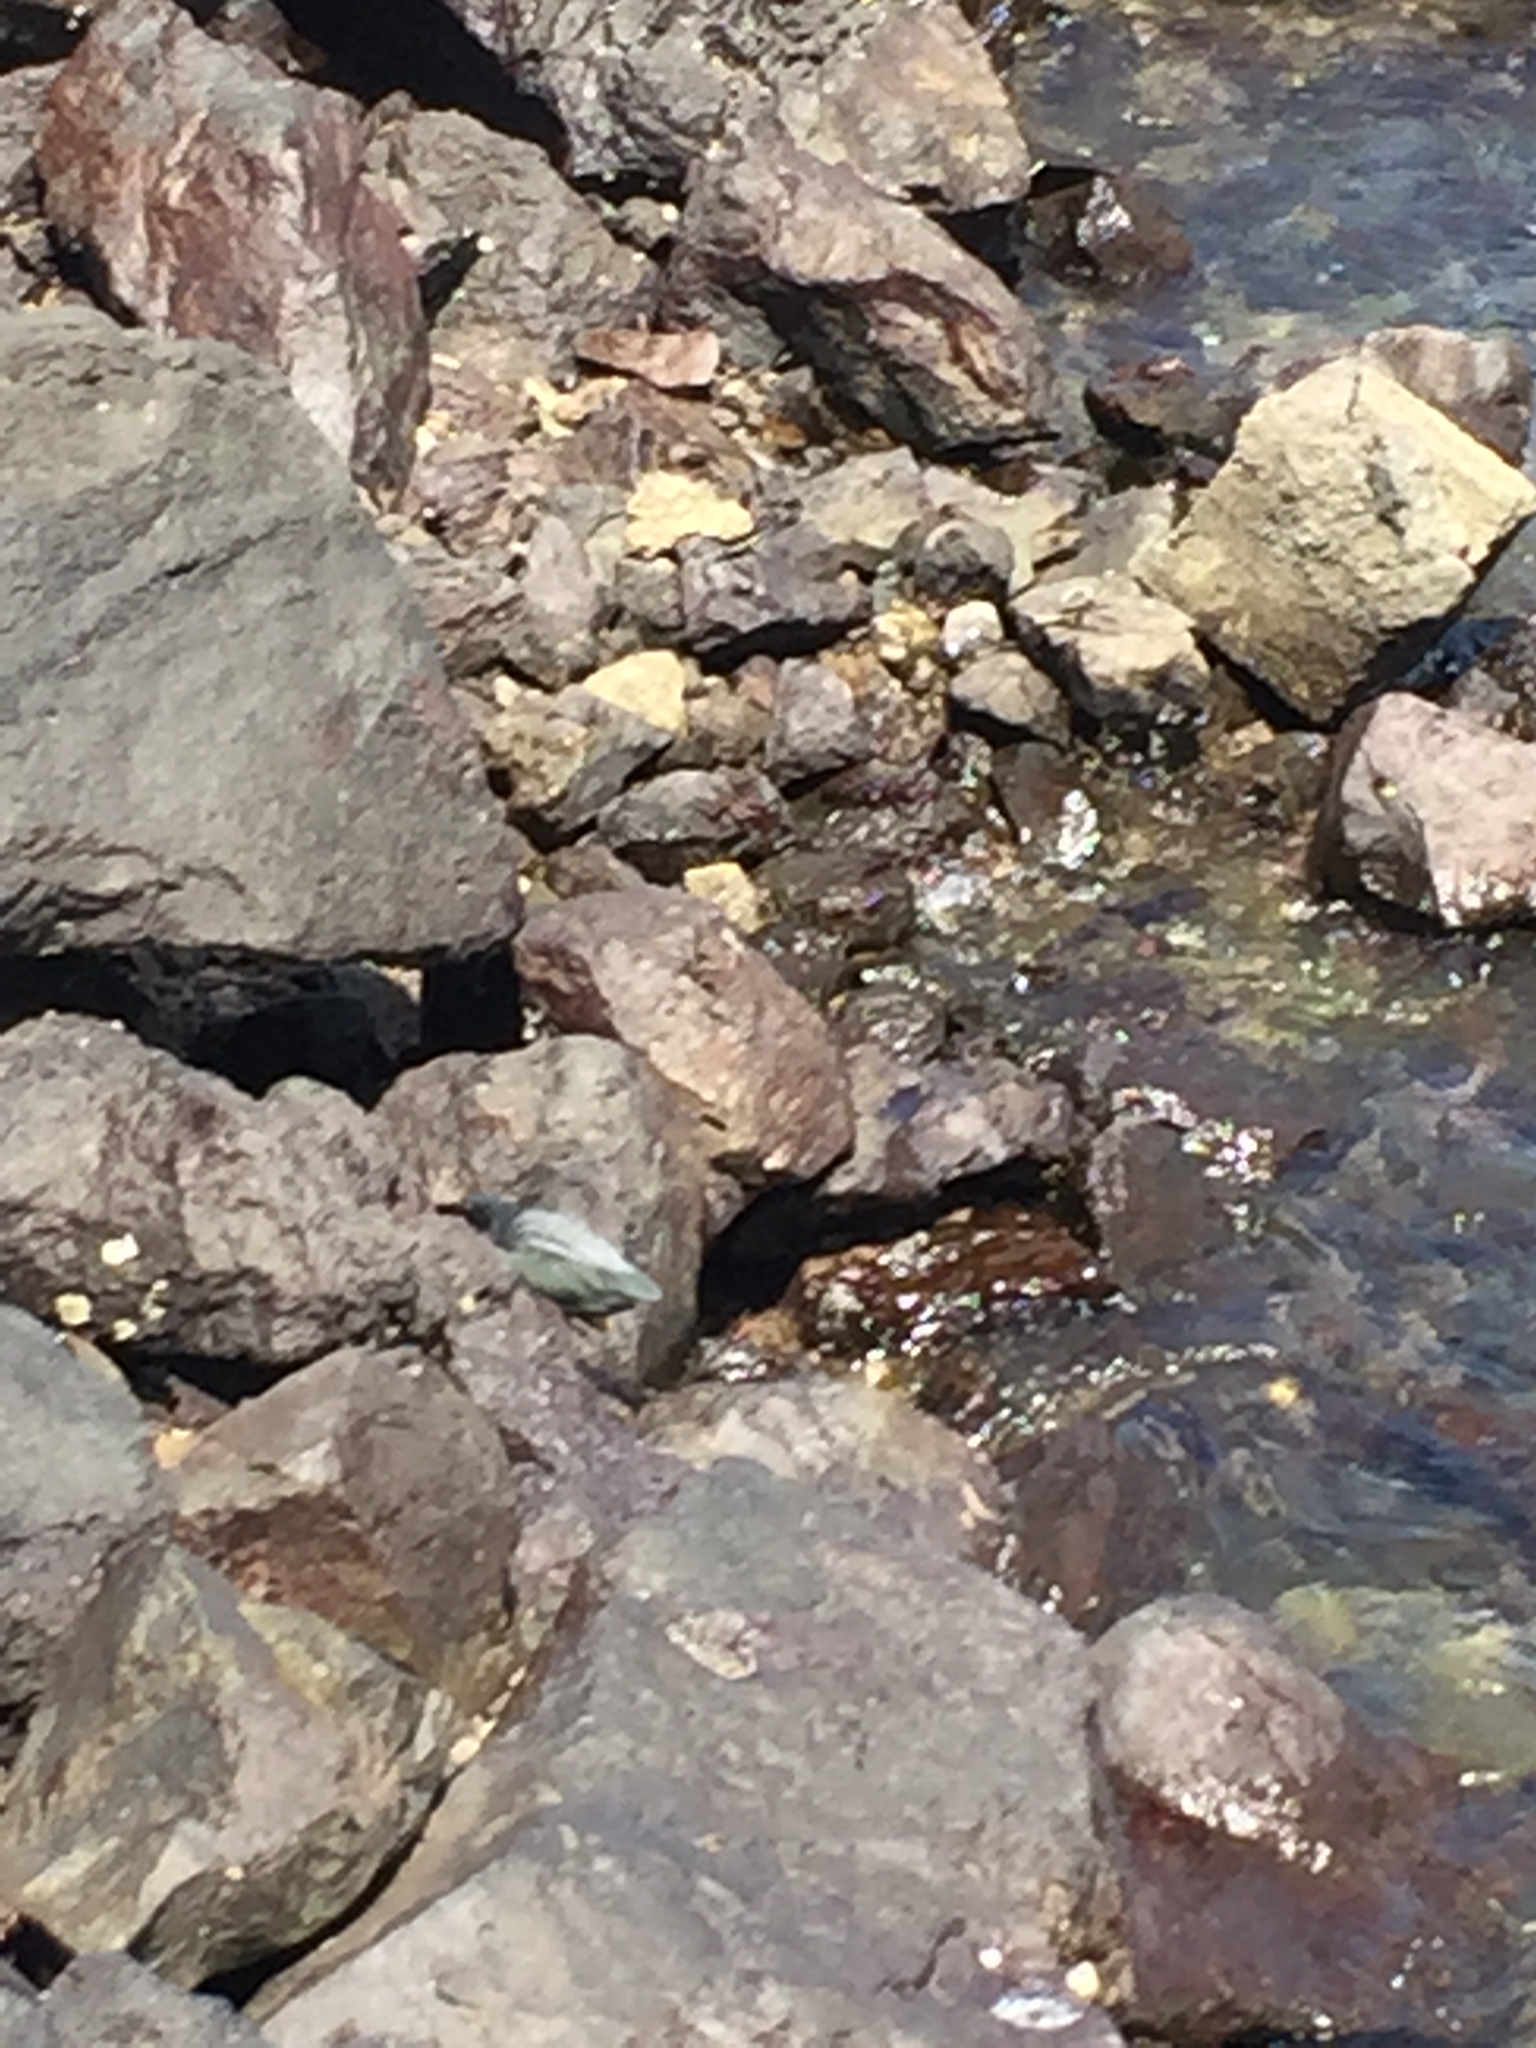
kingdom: Animalia
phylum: Chordata
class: Aves
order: Pelecaniformes
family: Ardeidae
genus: Butorides
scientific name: Butorides striata
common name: Striated heron
